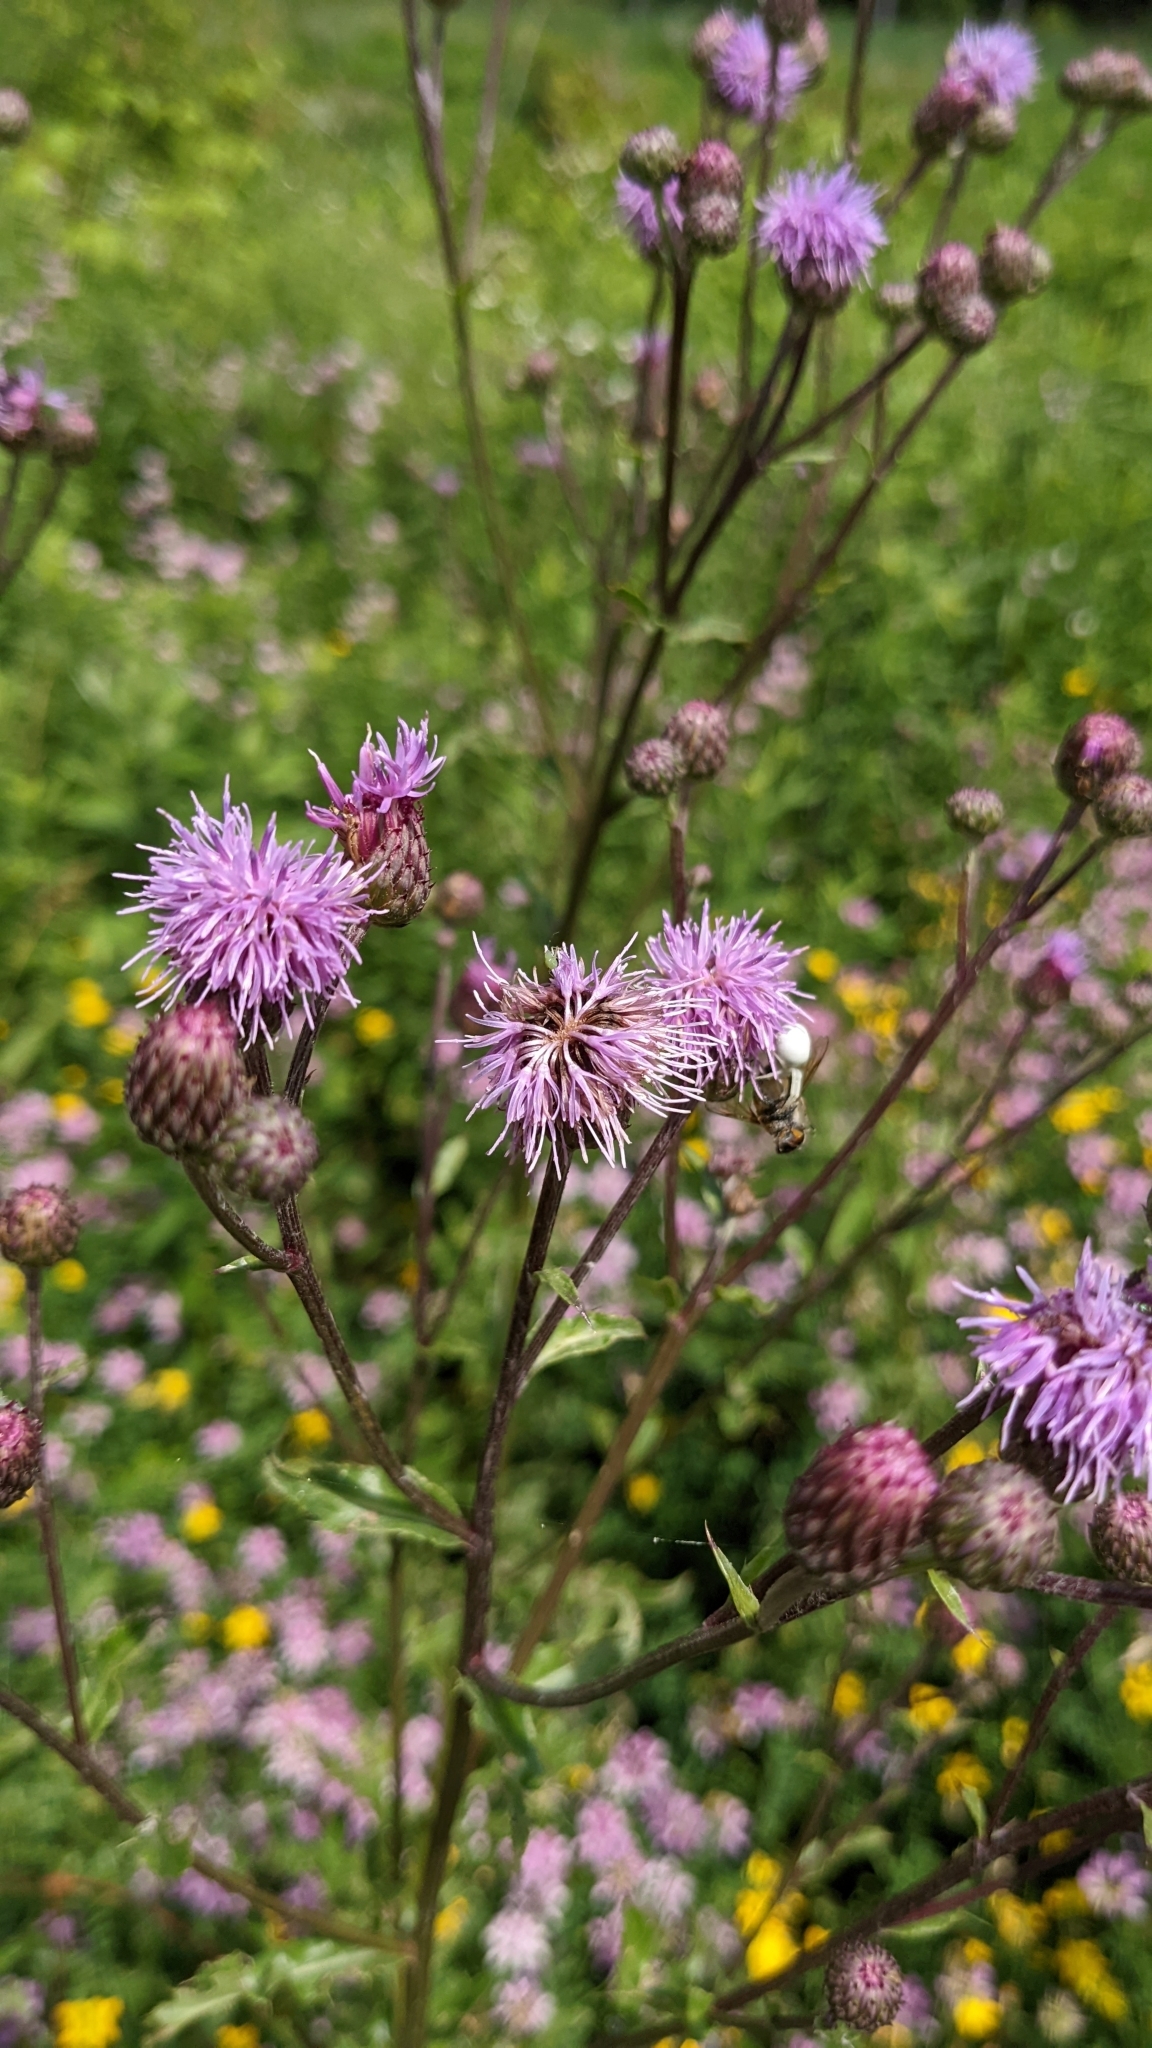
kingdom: Plantae
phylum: Tracheophyta
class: Magnoliopsida
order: Asterales
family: Asteraceae
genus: Cirsium
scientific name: Cirsium arvense
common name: Creeping thistle
